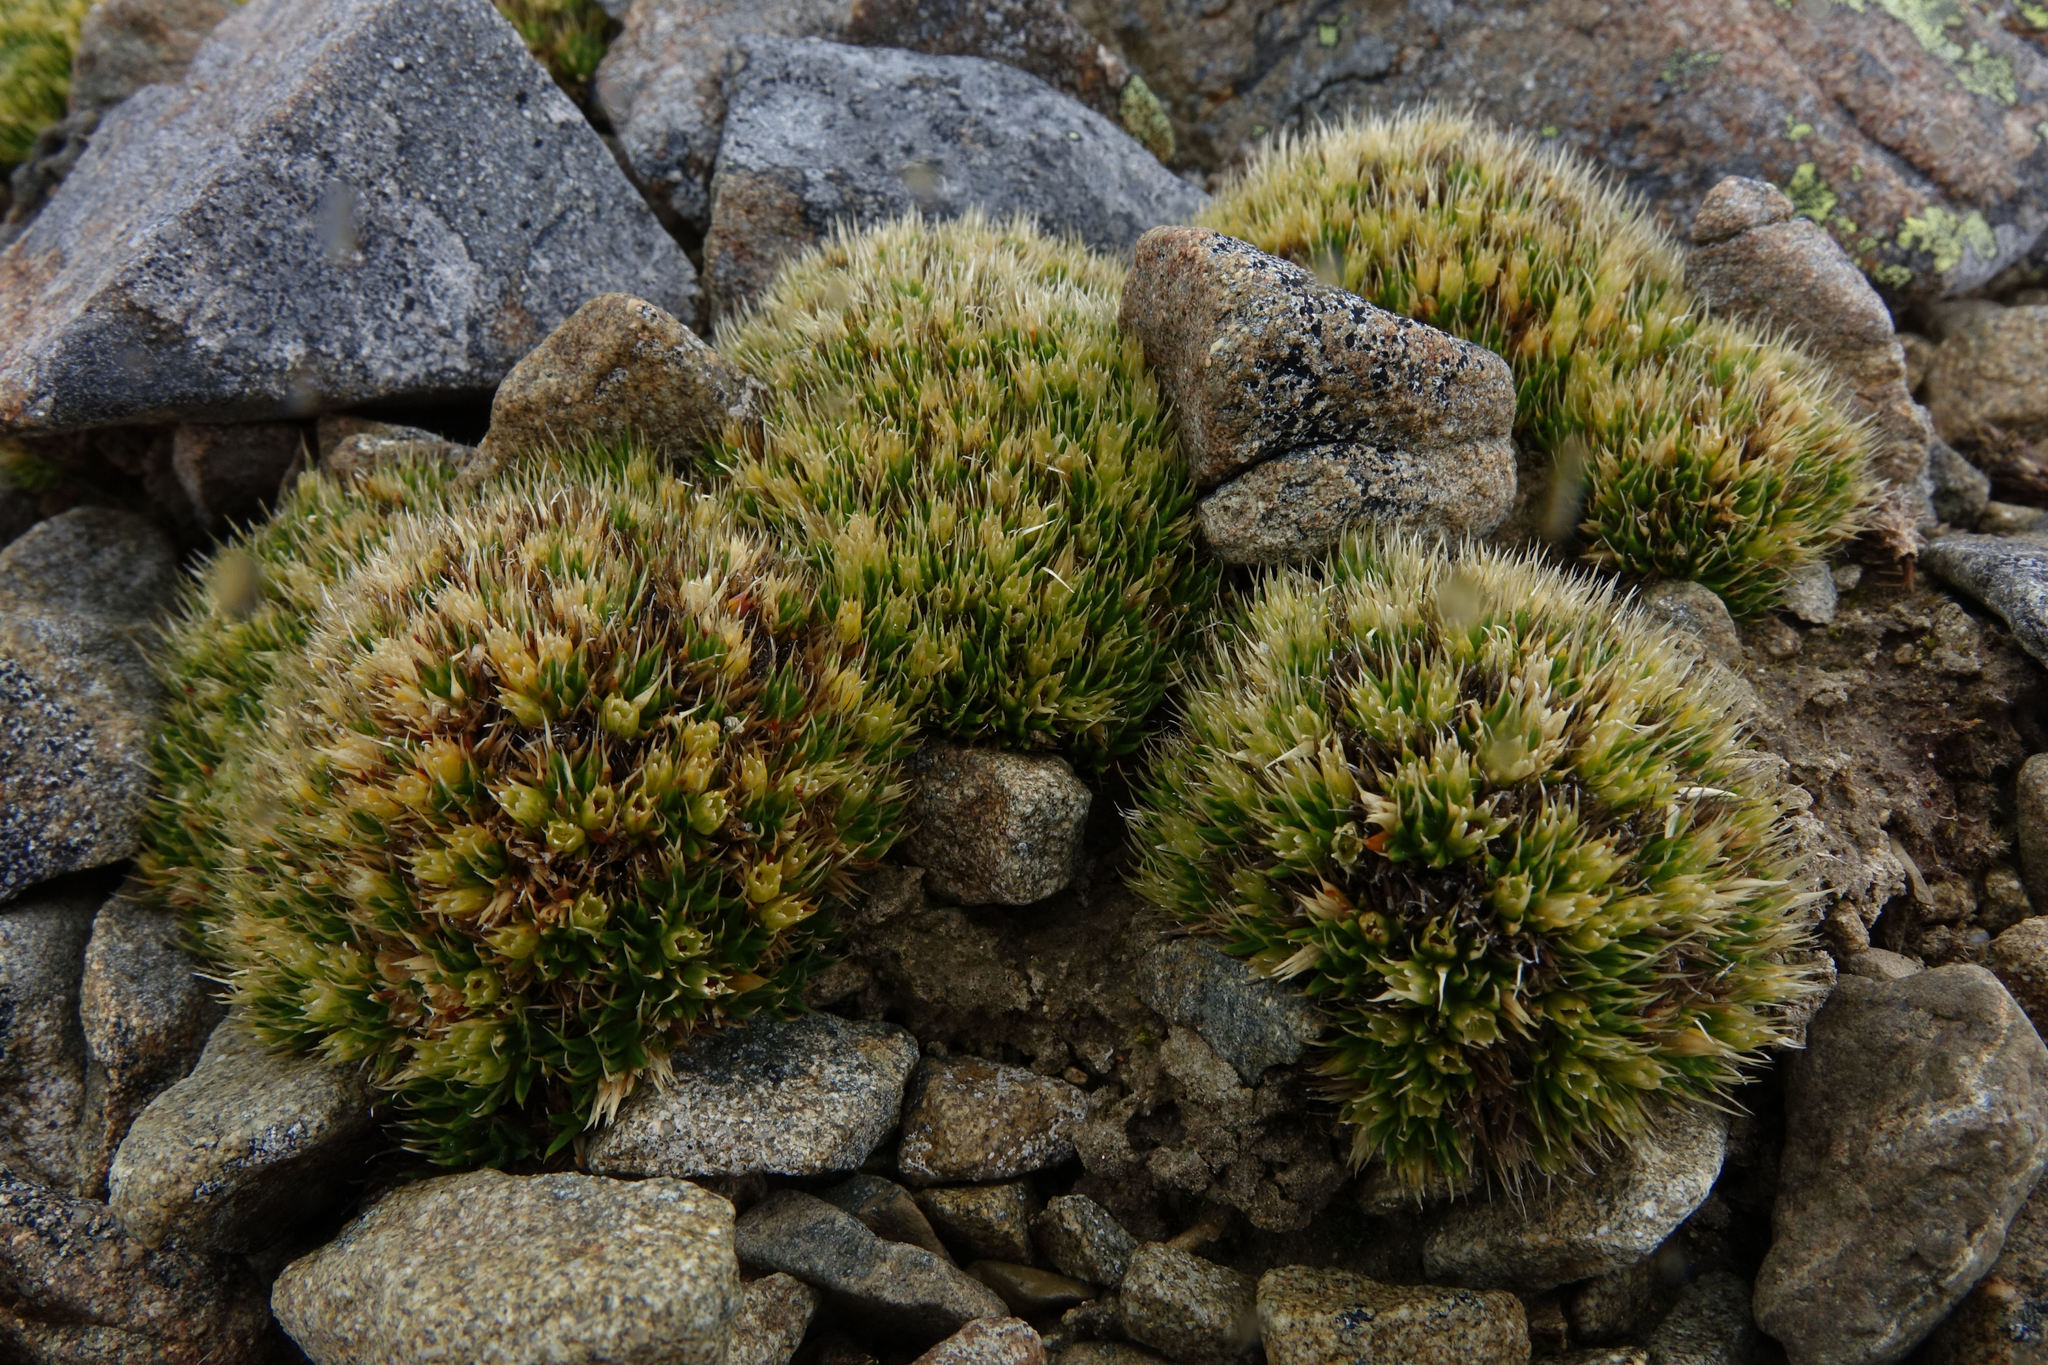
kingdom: Plantae
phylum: Tracheophyta
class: Magnoliopsida
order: Caryophyllales
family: Caryophyllaceae
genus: Colobanthus
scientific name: Colobanthus buchananii
